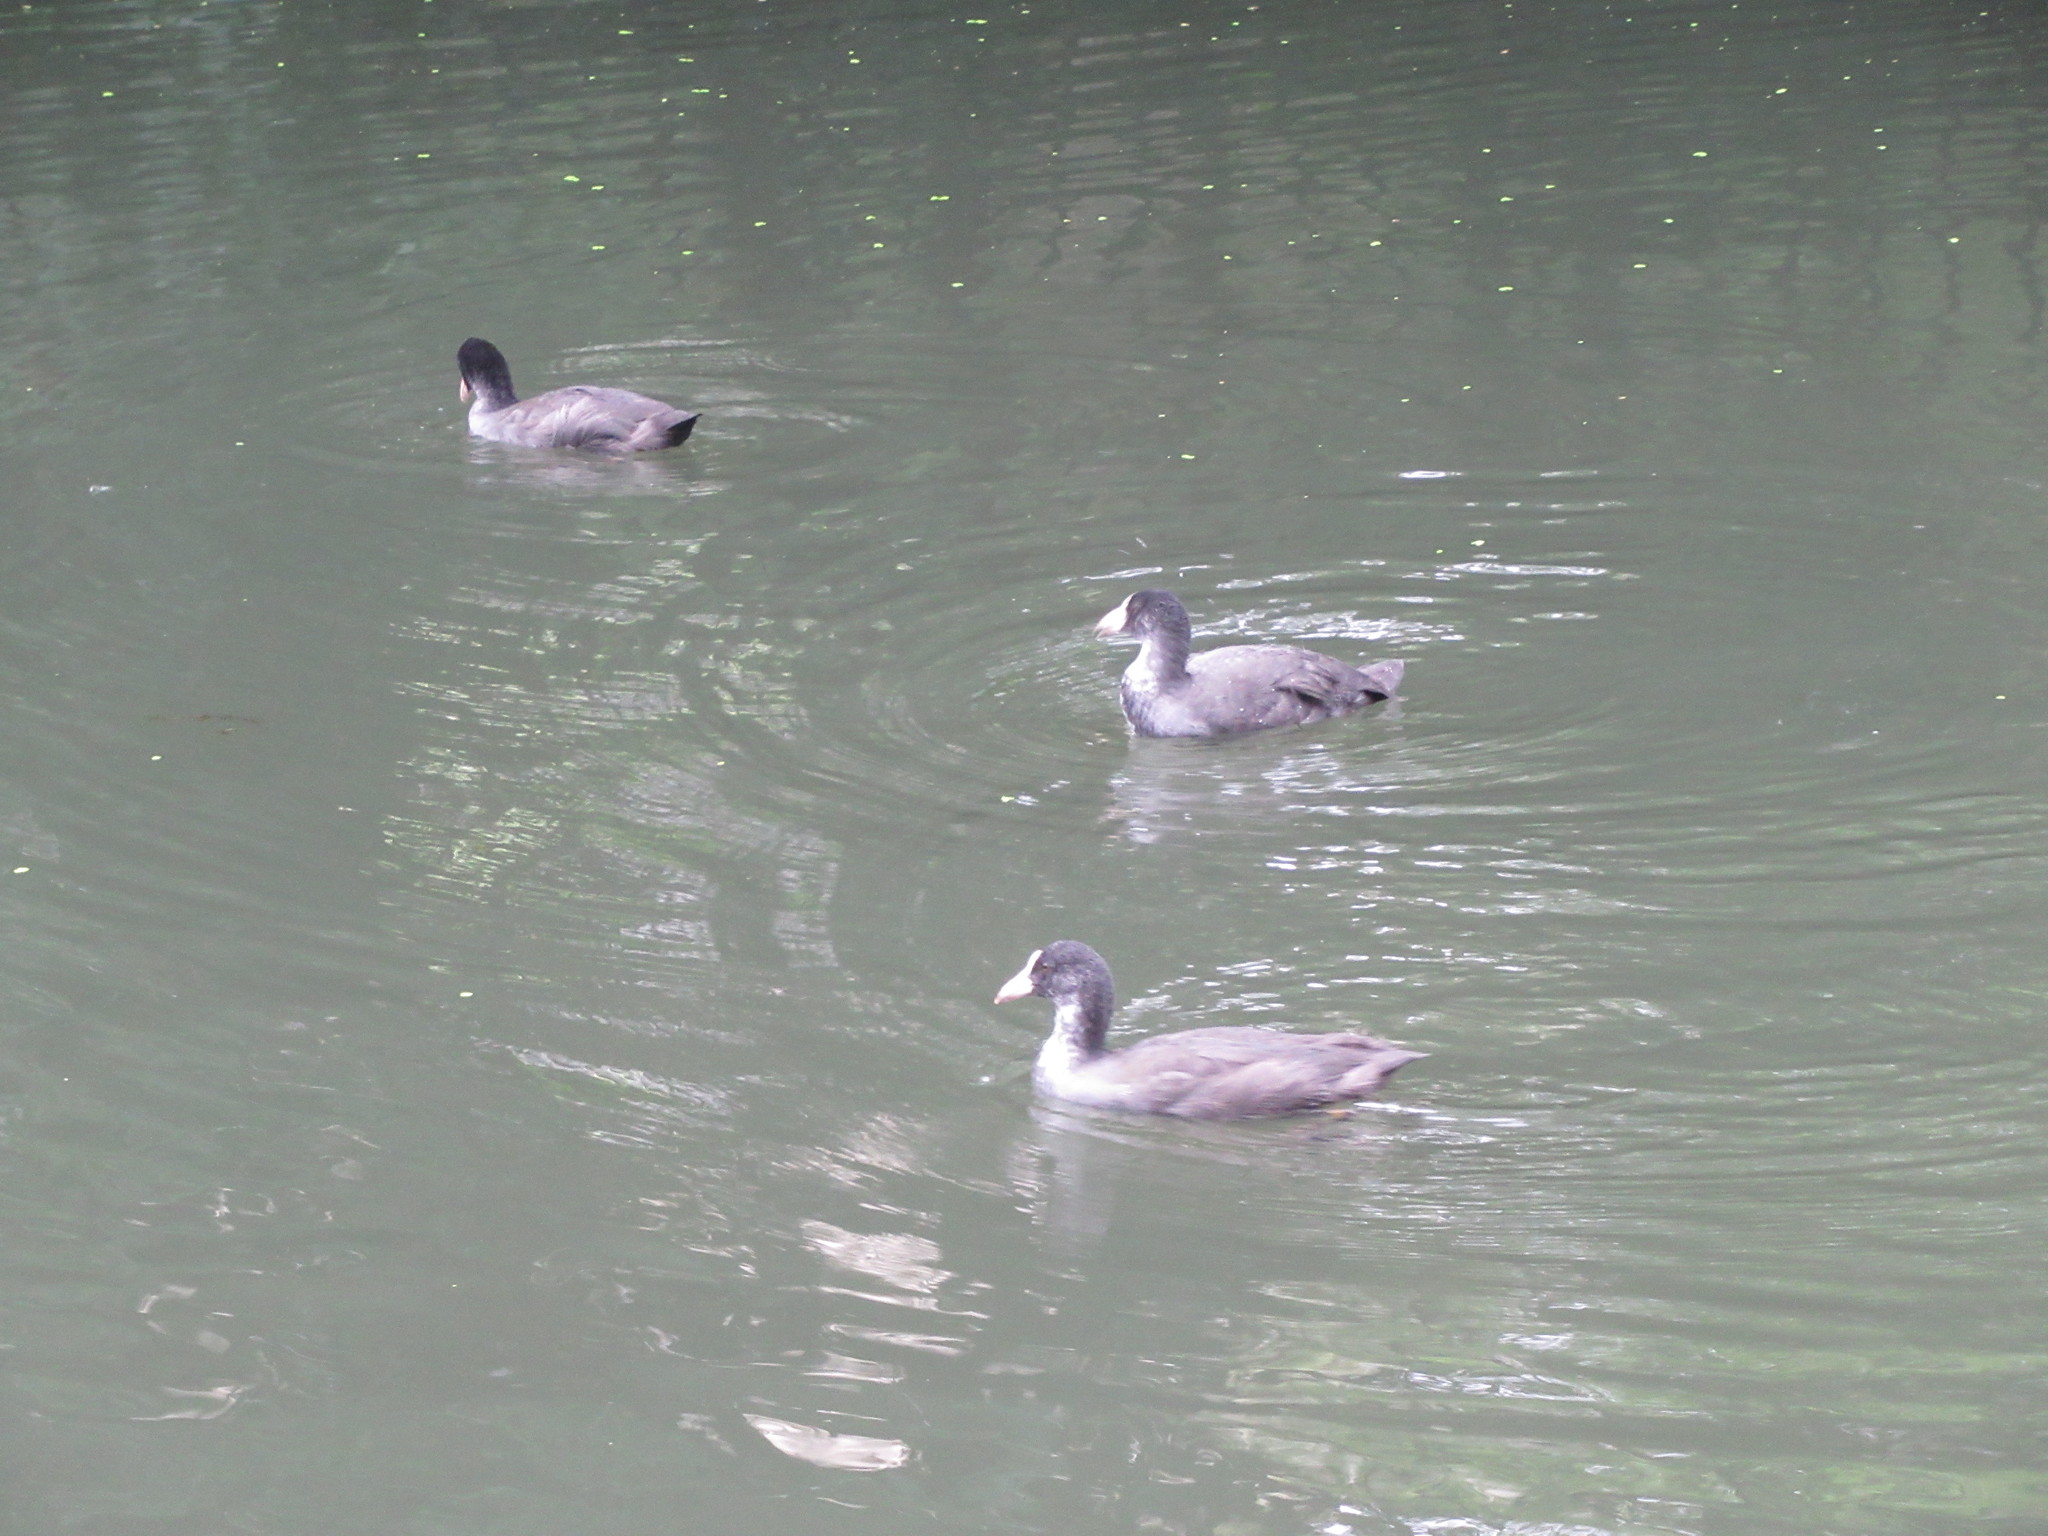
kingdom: Animalia
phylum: Chordata
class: Aves
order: Gruiformes
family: Rallidae
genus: Fulica
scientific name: Fulica atra
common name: Eurasian coot
